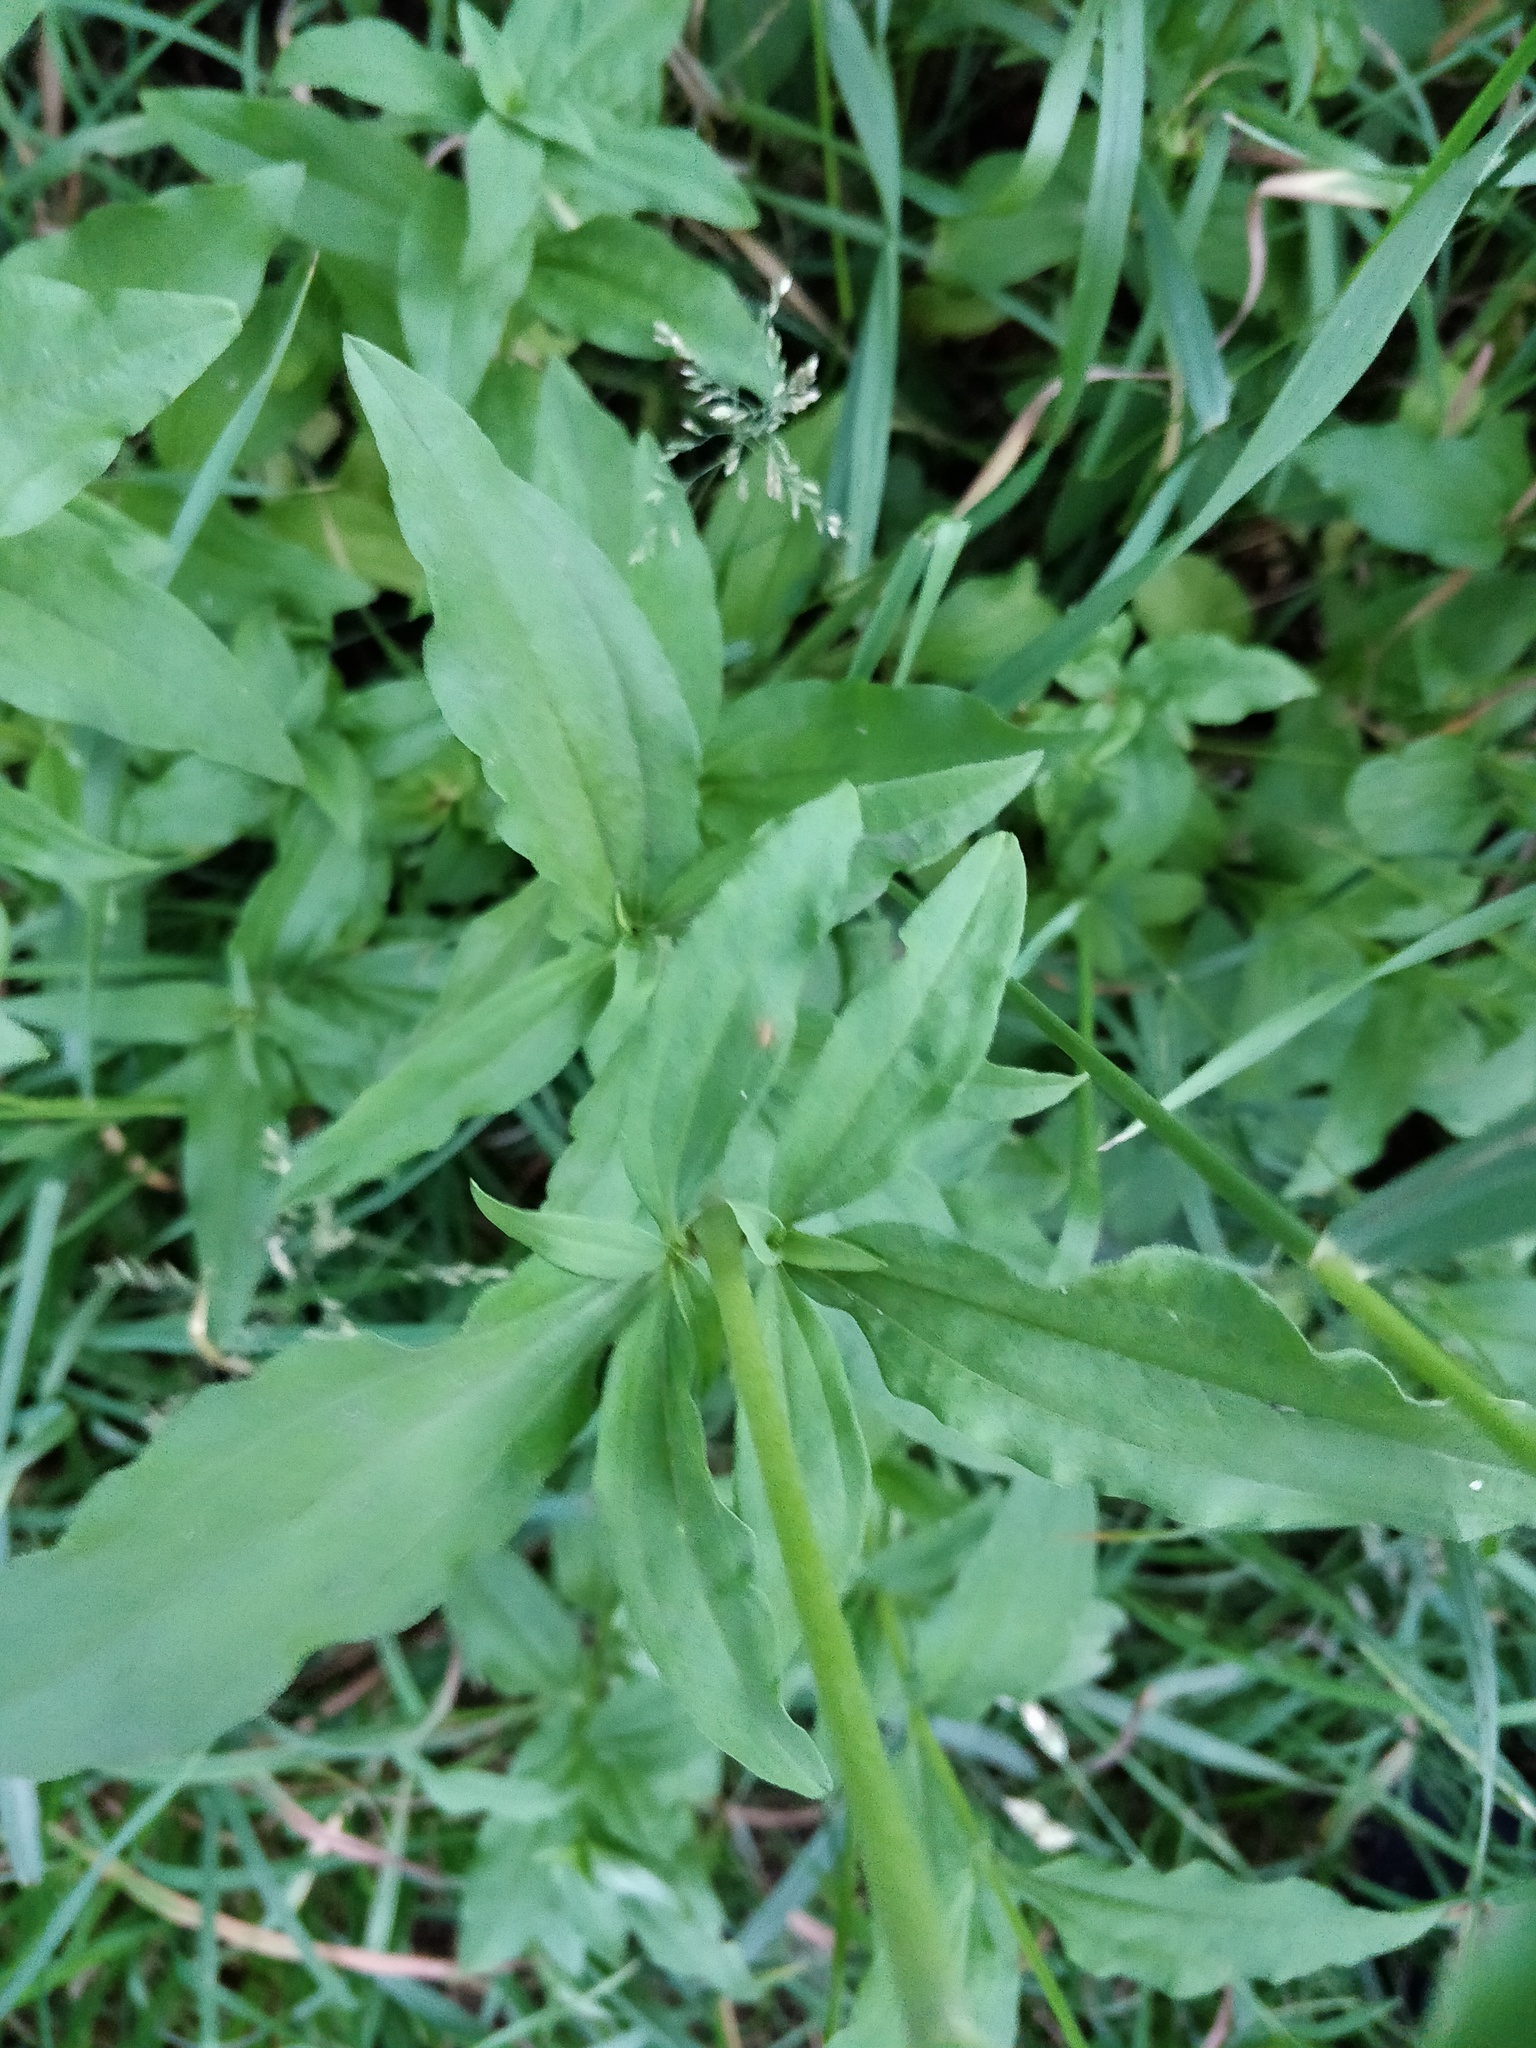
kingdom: Plantae
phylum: Tracheophyta
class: Magnoliopsida
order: Caryophyllales
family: Caryophyllaceae
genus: Saponaria
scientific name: Saponaria officinalis
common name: Soapwort
